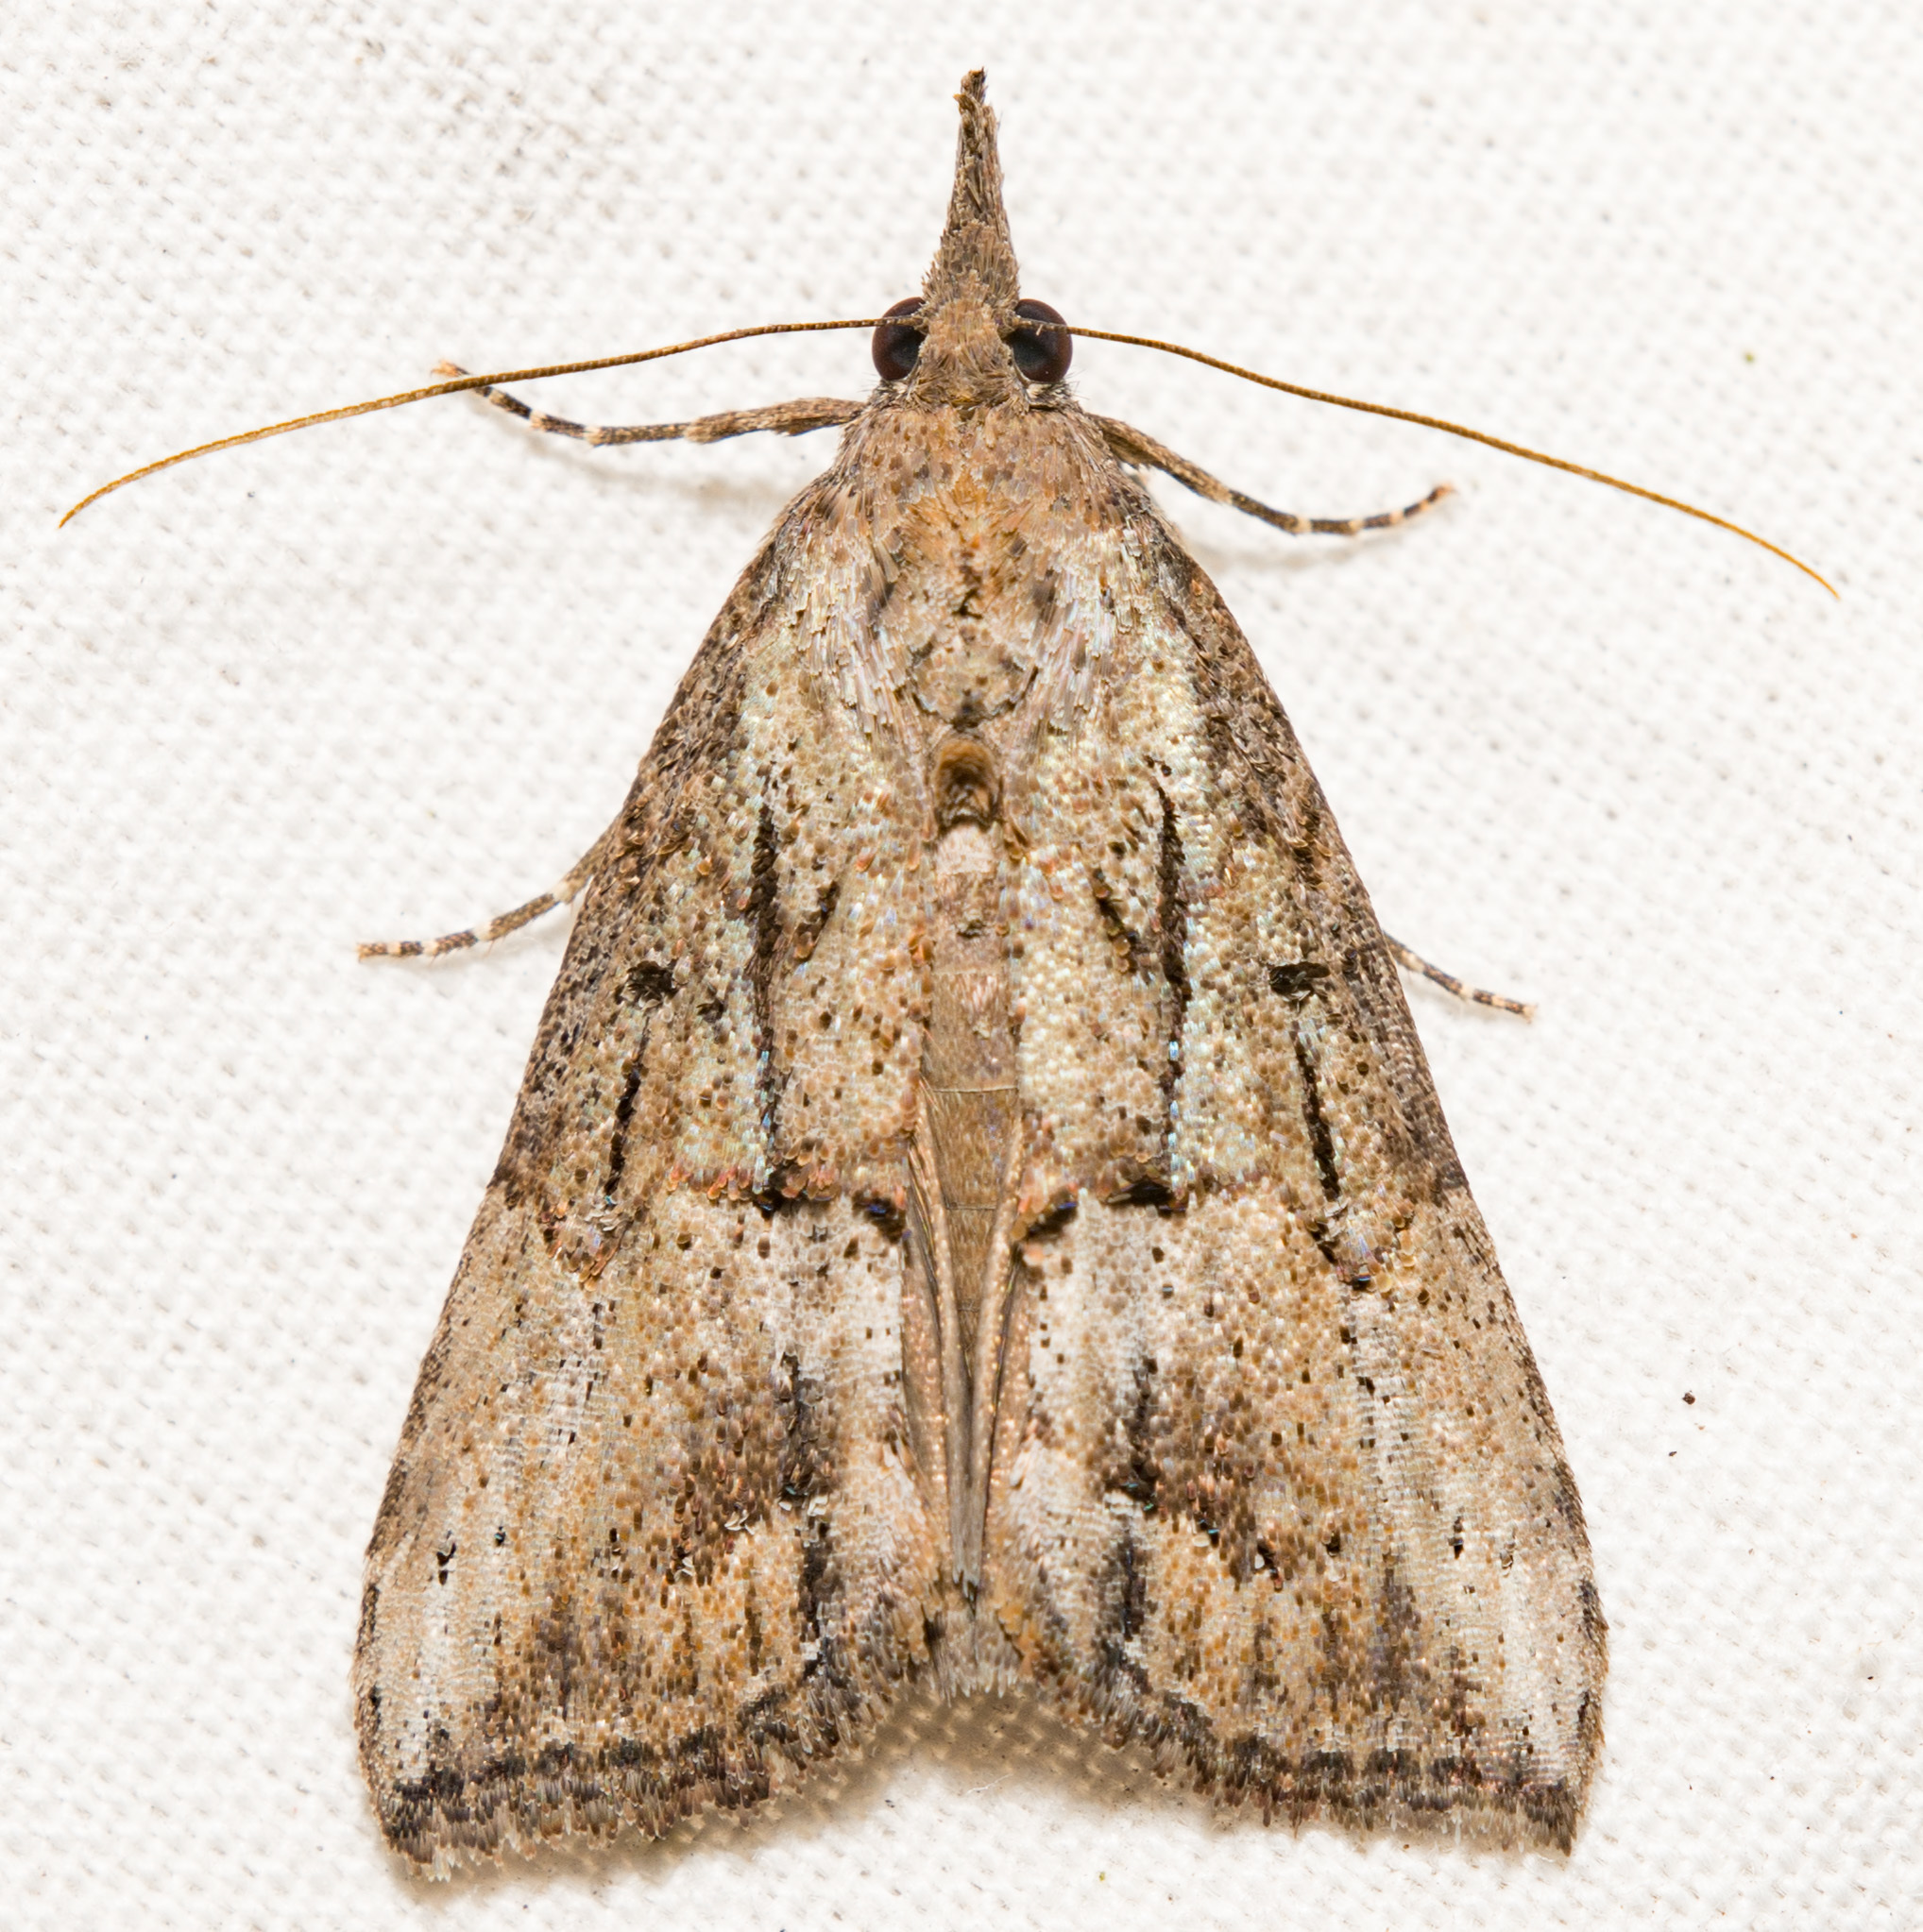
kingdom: Animalia
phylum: Arthropoda
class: Insecta
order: Lepidoptera
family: Erebidae
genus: Hypena
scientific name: Hypena scabra
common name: Green cloverworm
